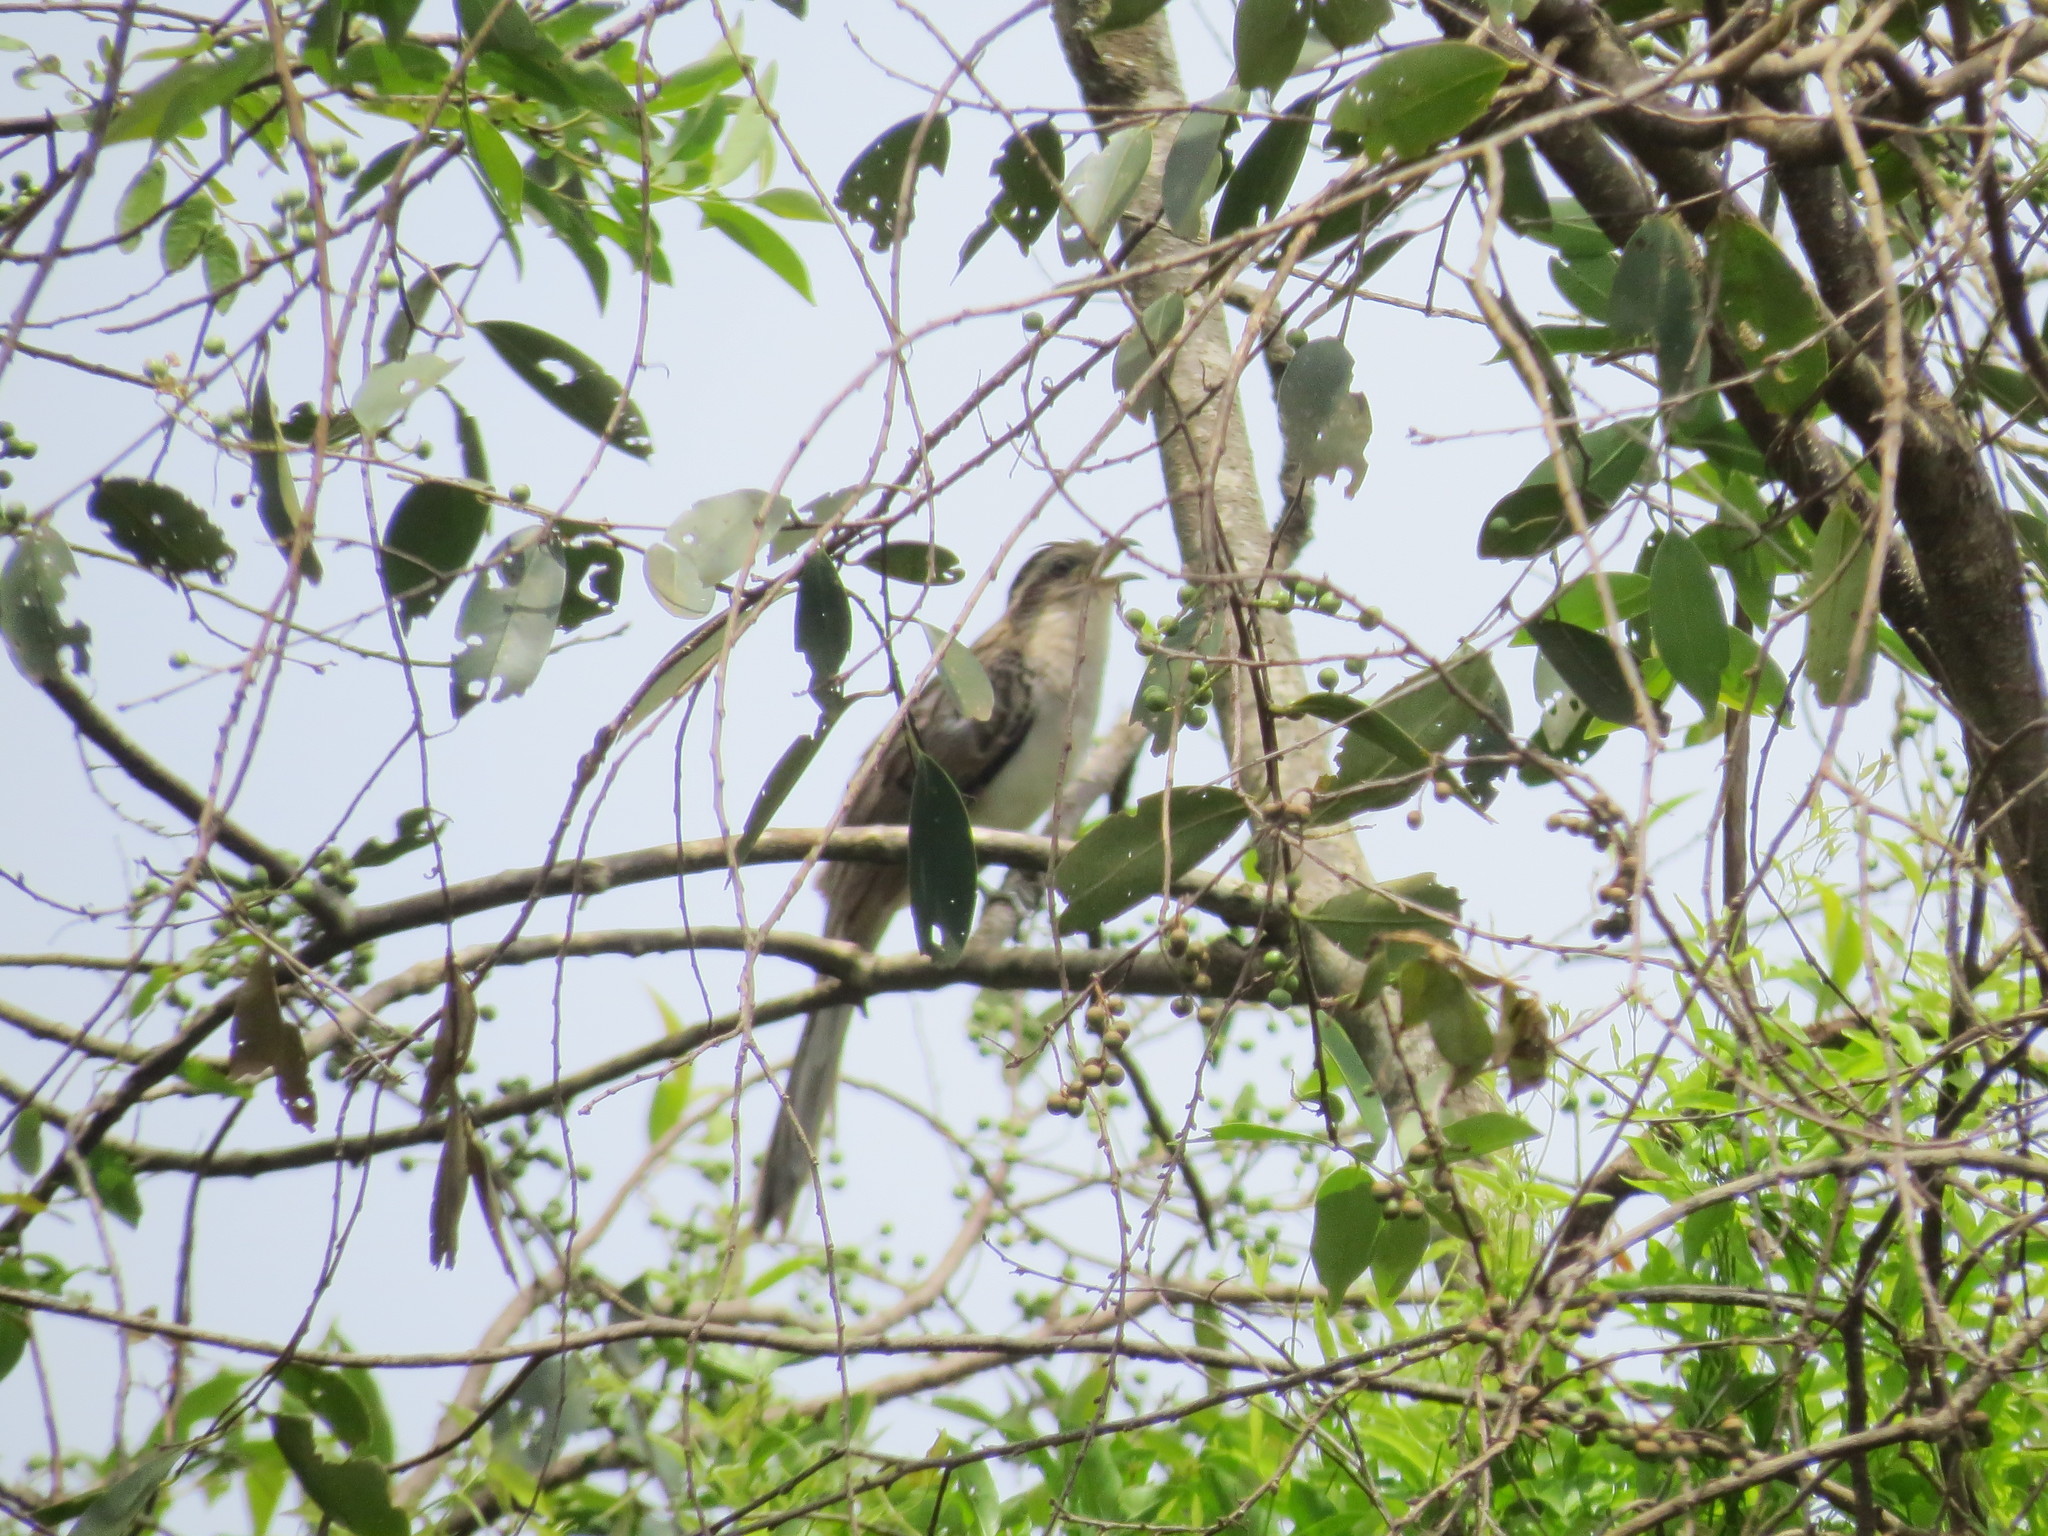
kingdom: Animalia
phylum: Chordata
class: Aves
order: Cuculiformes
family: Cuculidae
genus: Tapera
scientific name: Tapera naevia
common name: Striped cuckoo
